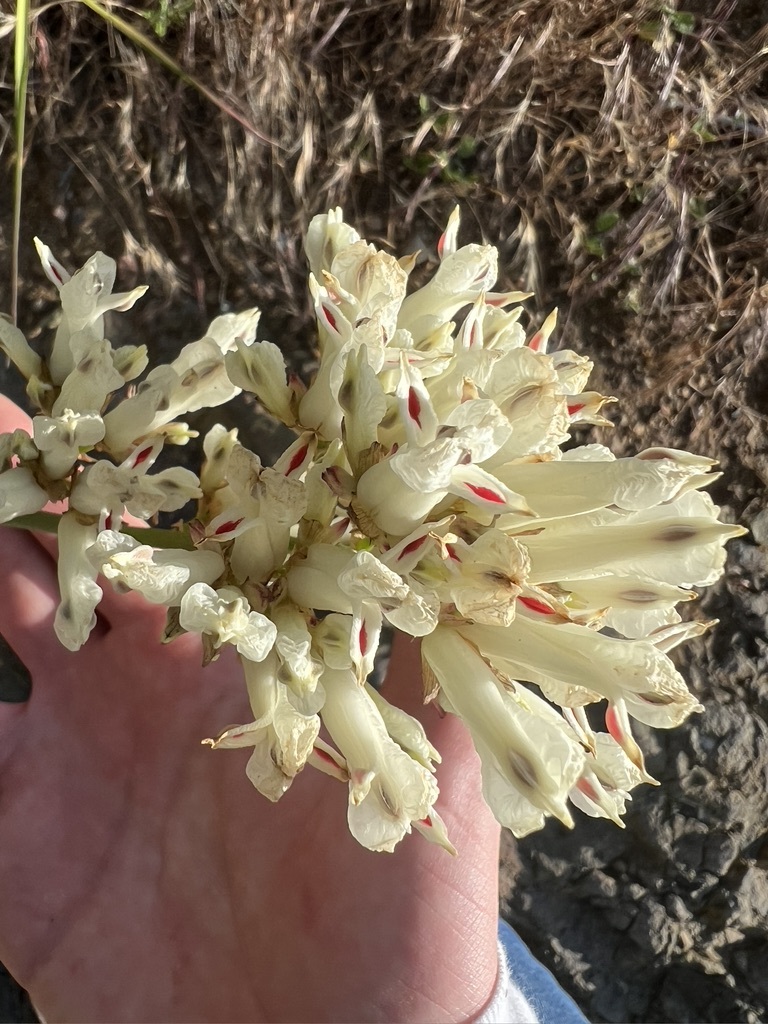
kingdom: Plantae
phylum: Tracheophyta
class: Magnoliopsida
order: Ranunculales
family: Papaveraceae
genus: Ehrendorferia
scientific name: Ehrendorferia ochroleuca
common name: White eardrops
